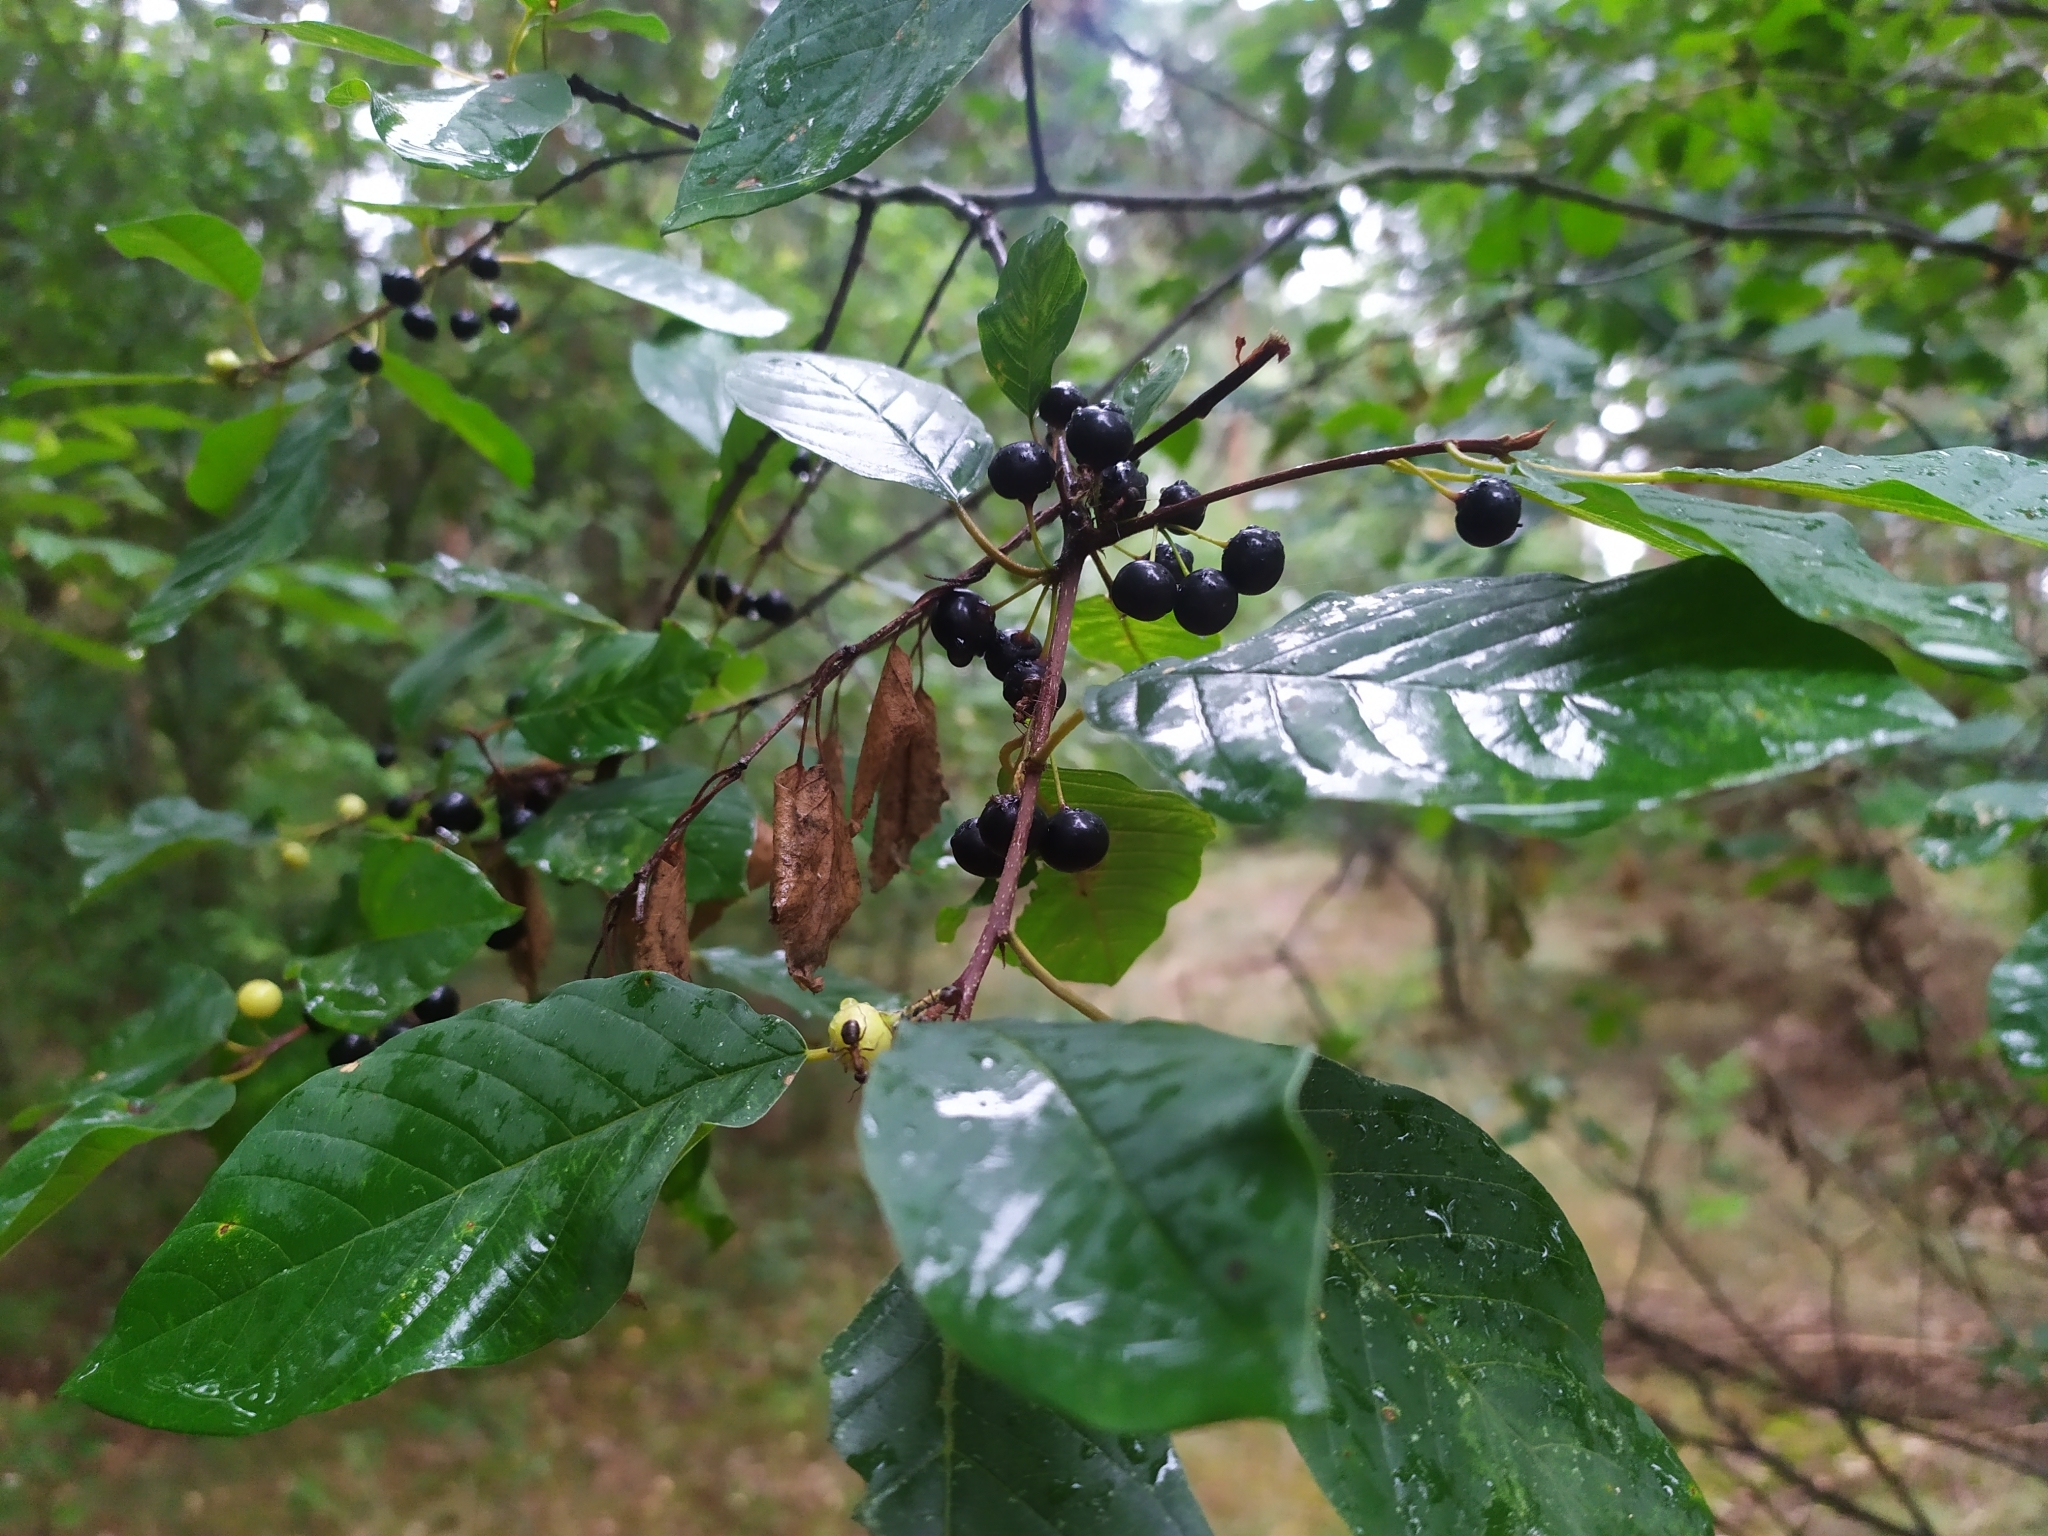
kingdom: Plantae
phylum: Tracheophyta
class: Magnoliopsida
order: Rosales
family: Rhamnaceae
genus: Frangula
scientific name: Frangula alnus
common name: Alder buckthorn
